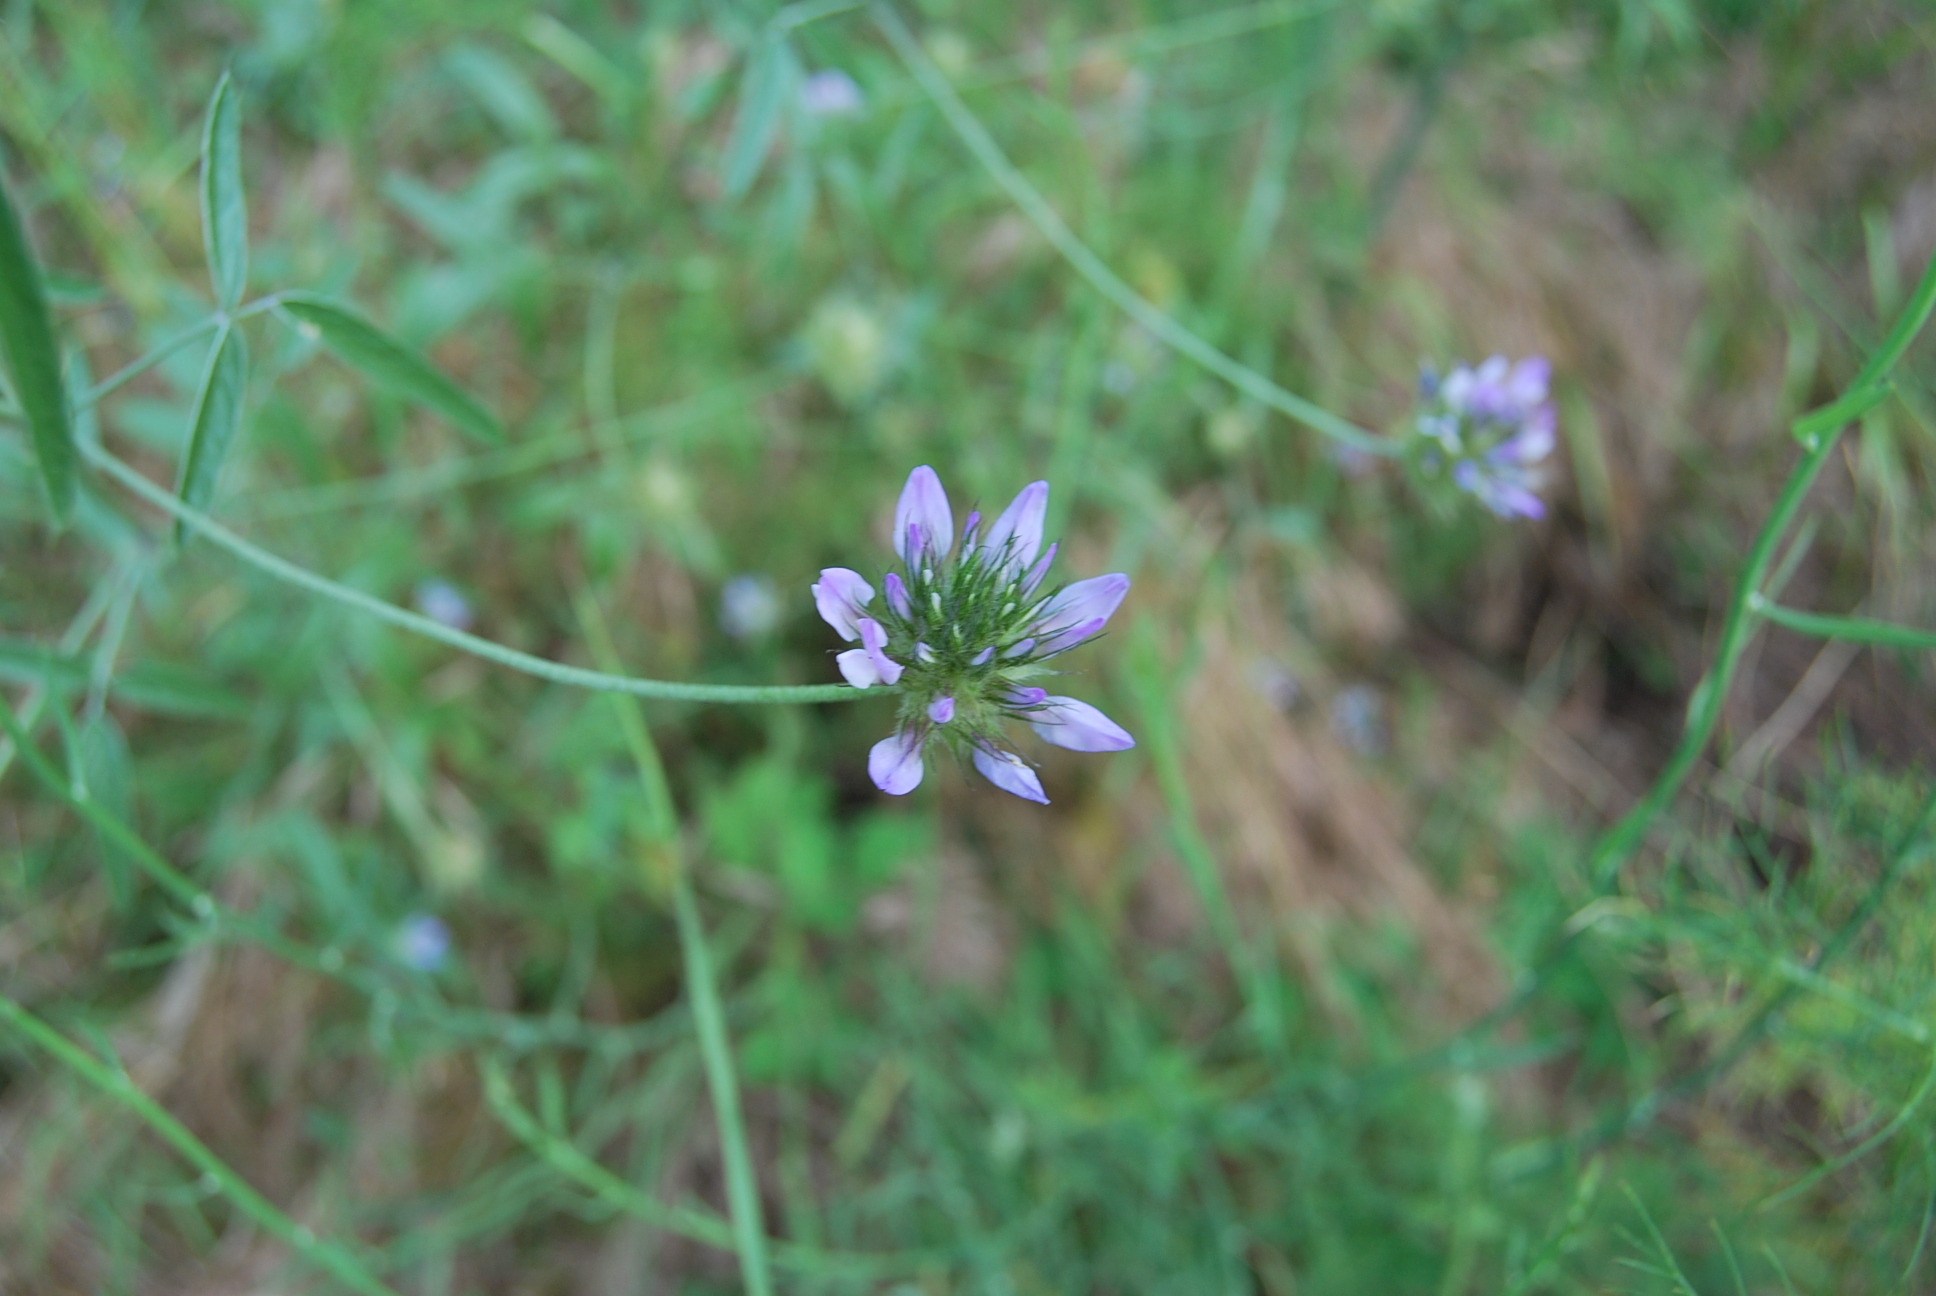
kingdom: Plantae
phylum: Tracheophyta
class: Magnoliopsida
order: Fabales
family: Fabaceae
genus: Bituminaria
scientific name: Bituminaria bituminosa
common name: Arabian pea
